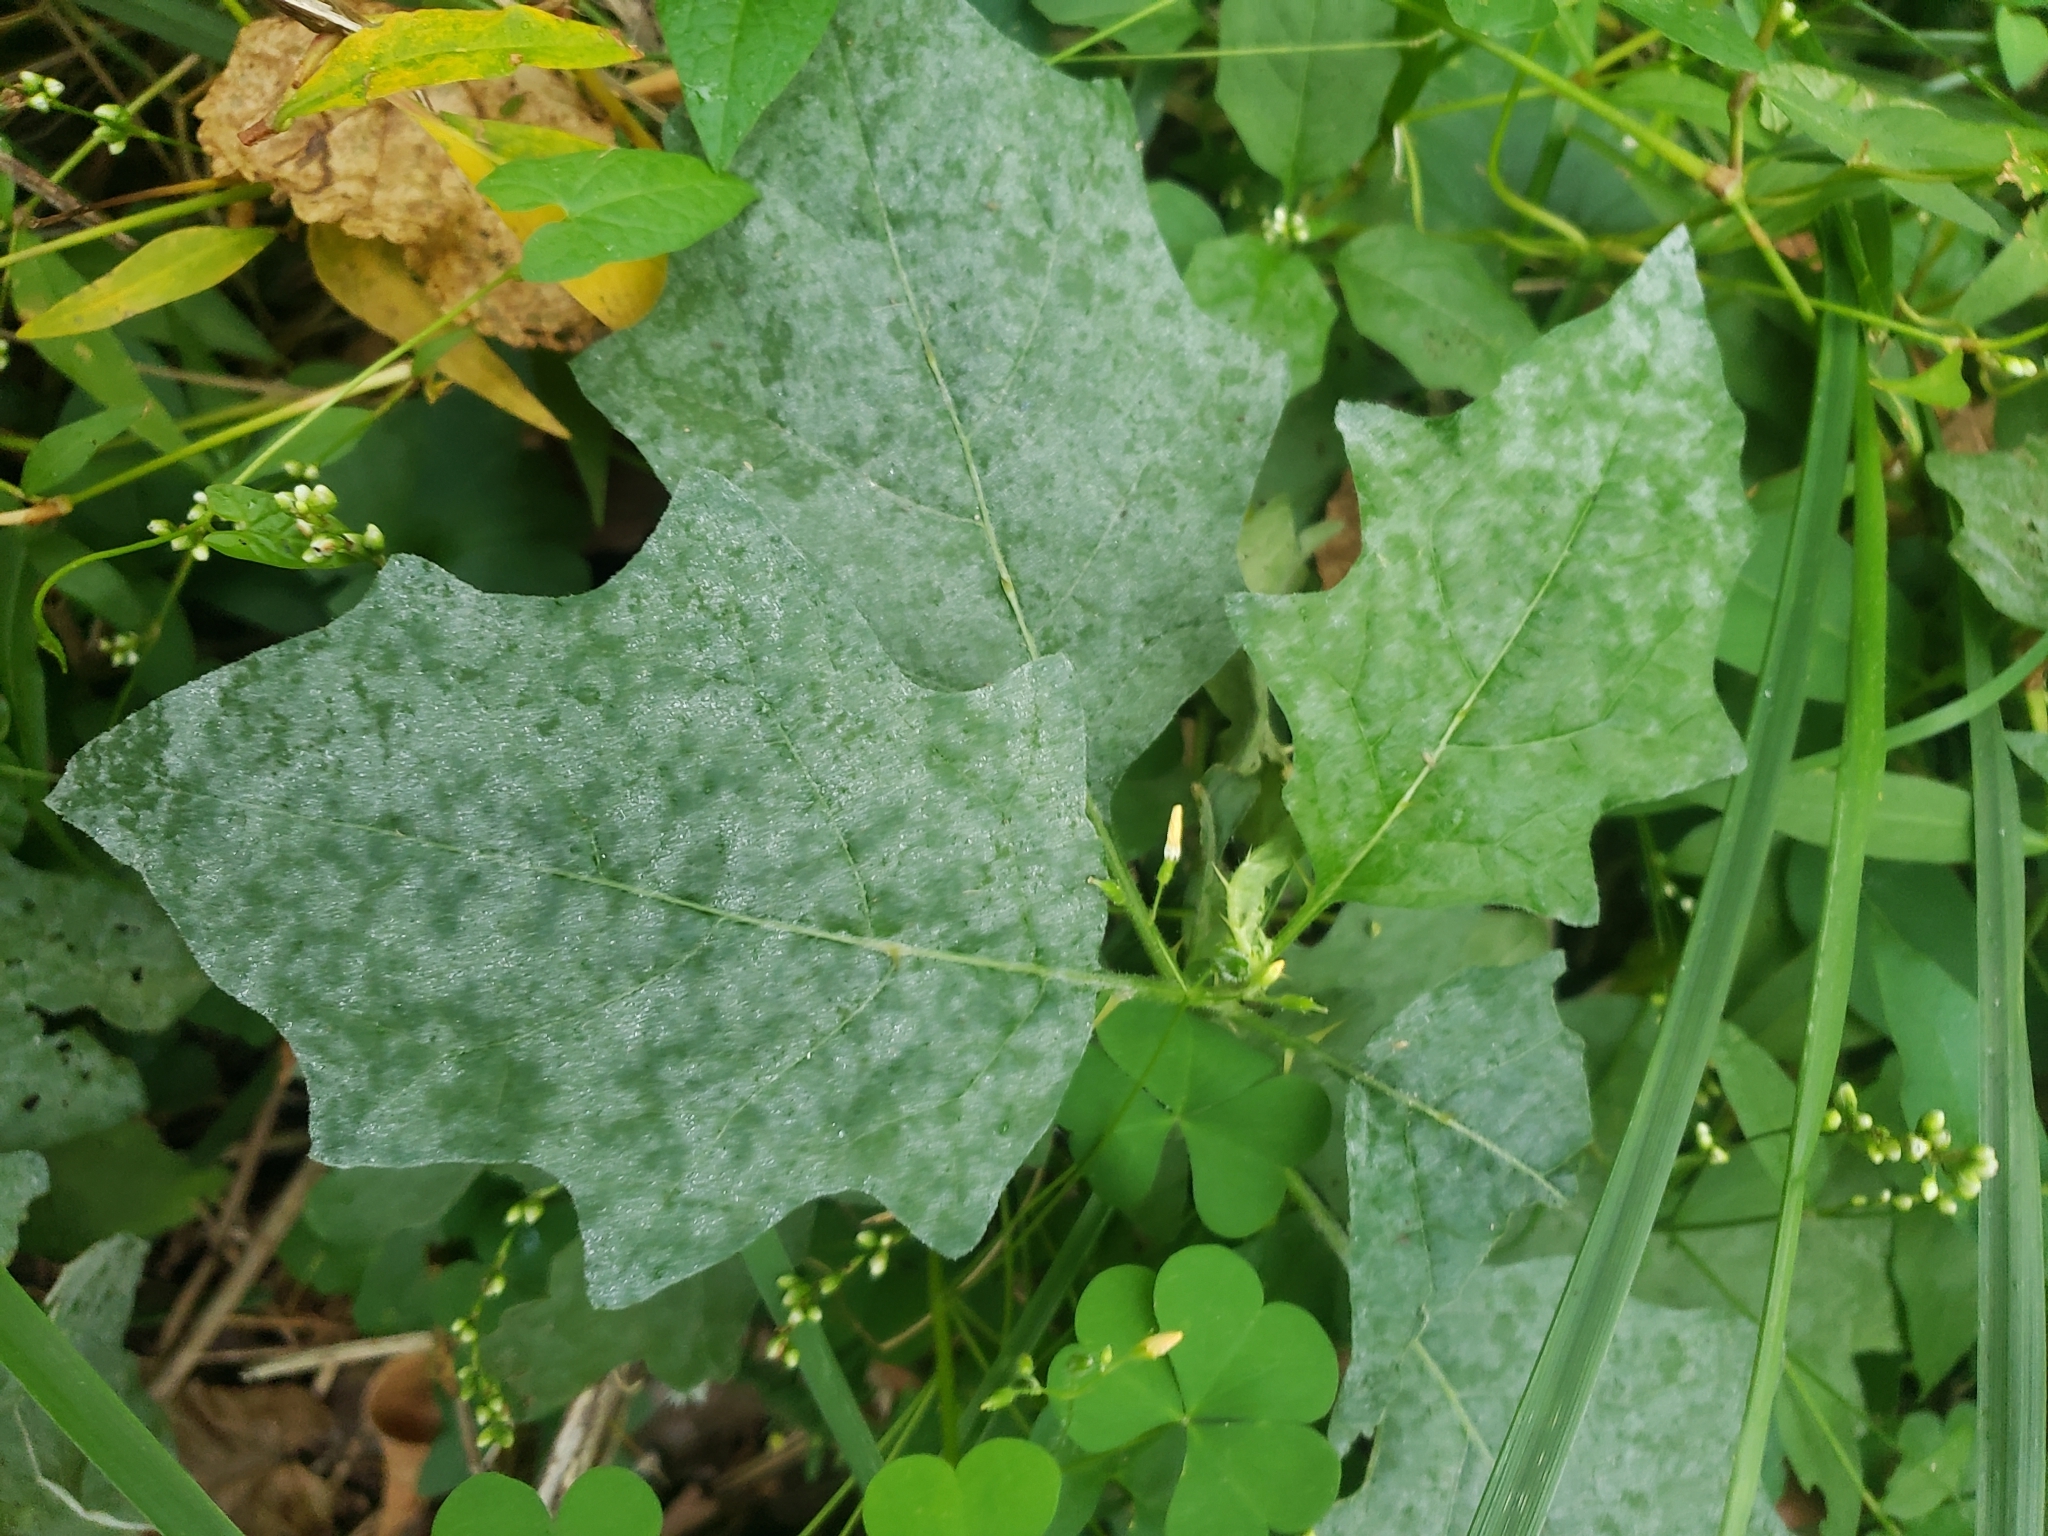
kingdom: Fungi
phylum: Ascomycota
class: Leotiomycetes
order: Helotiales
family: Erysiphaceae
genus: Podosphaera
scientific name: Podosphaera solanacearum
